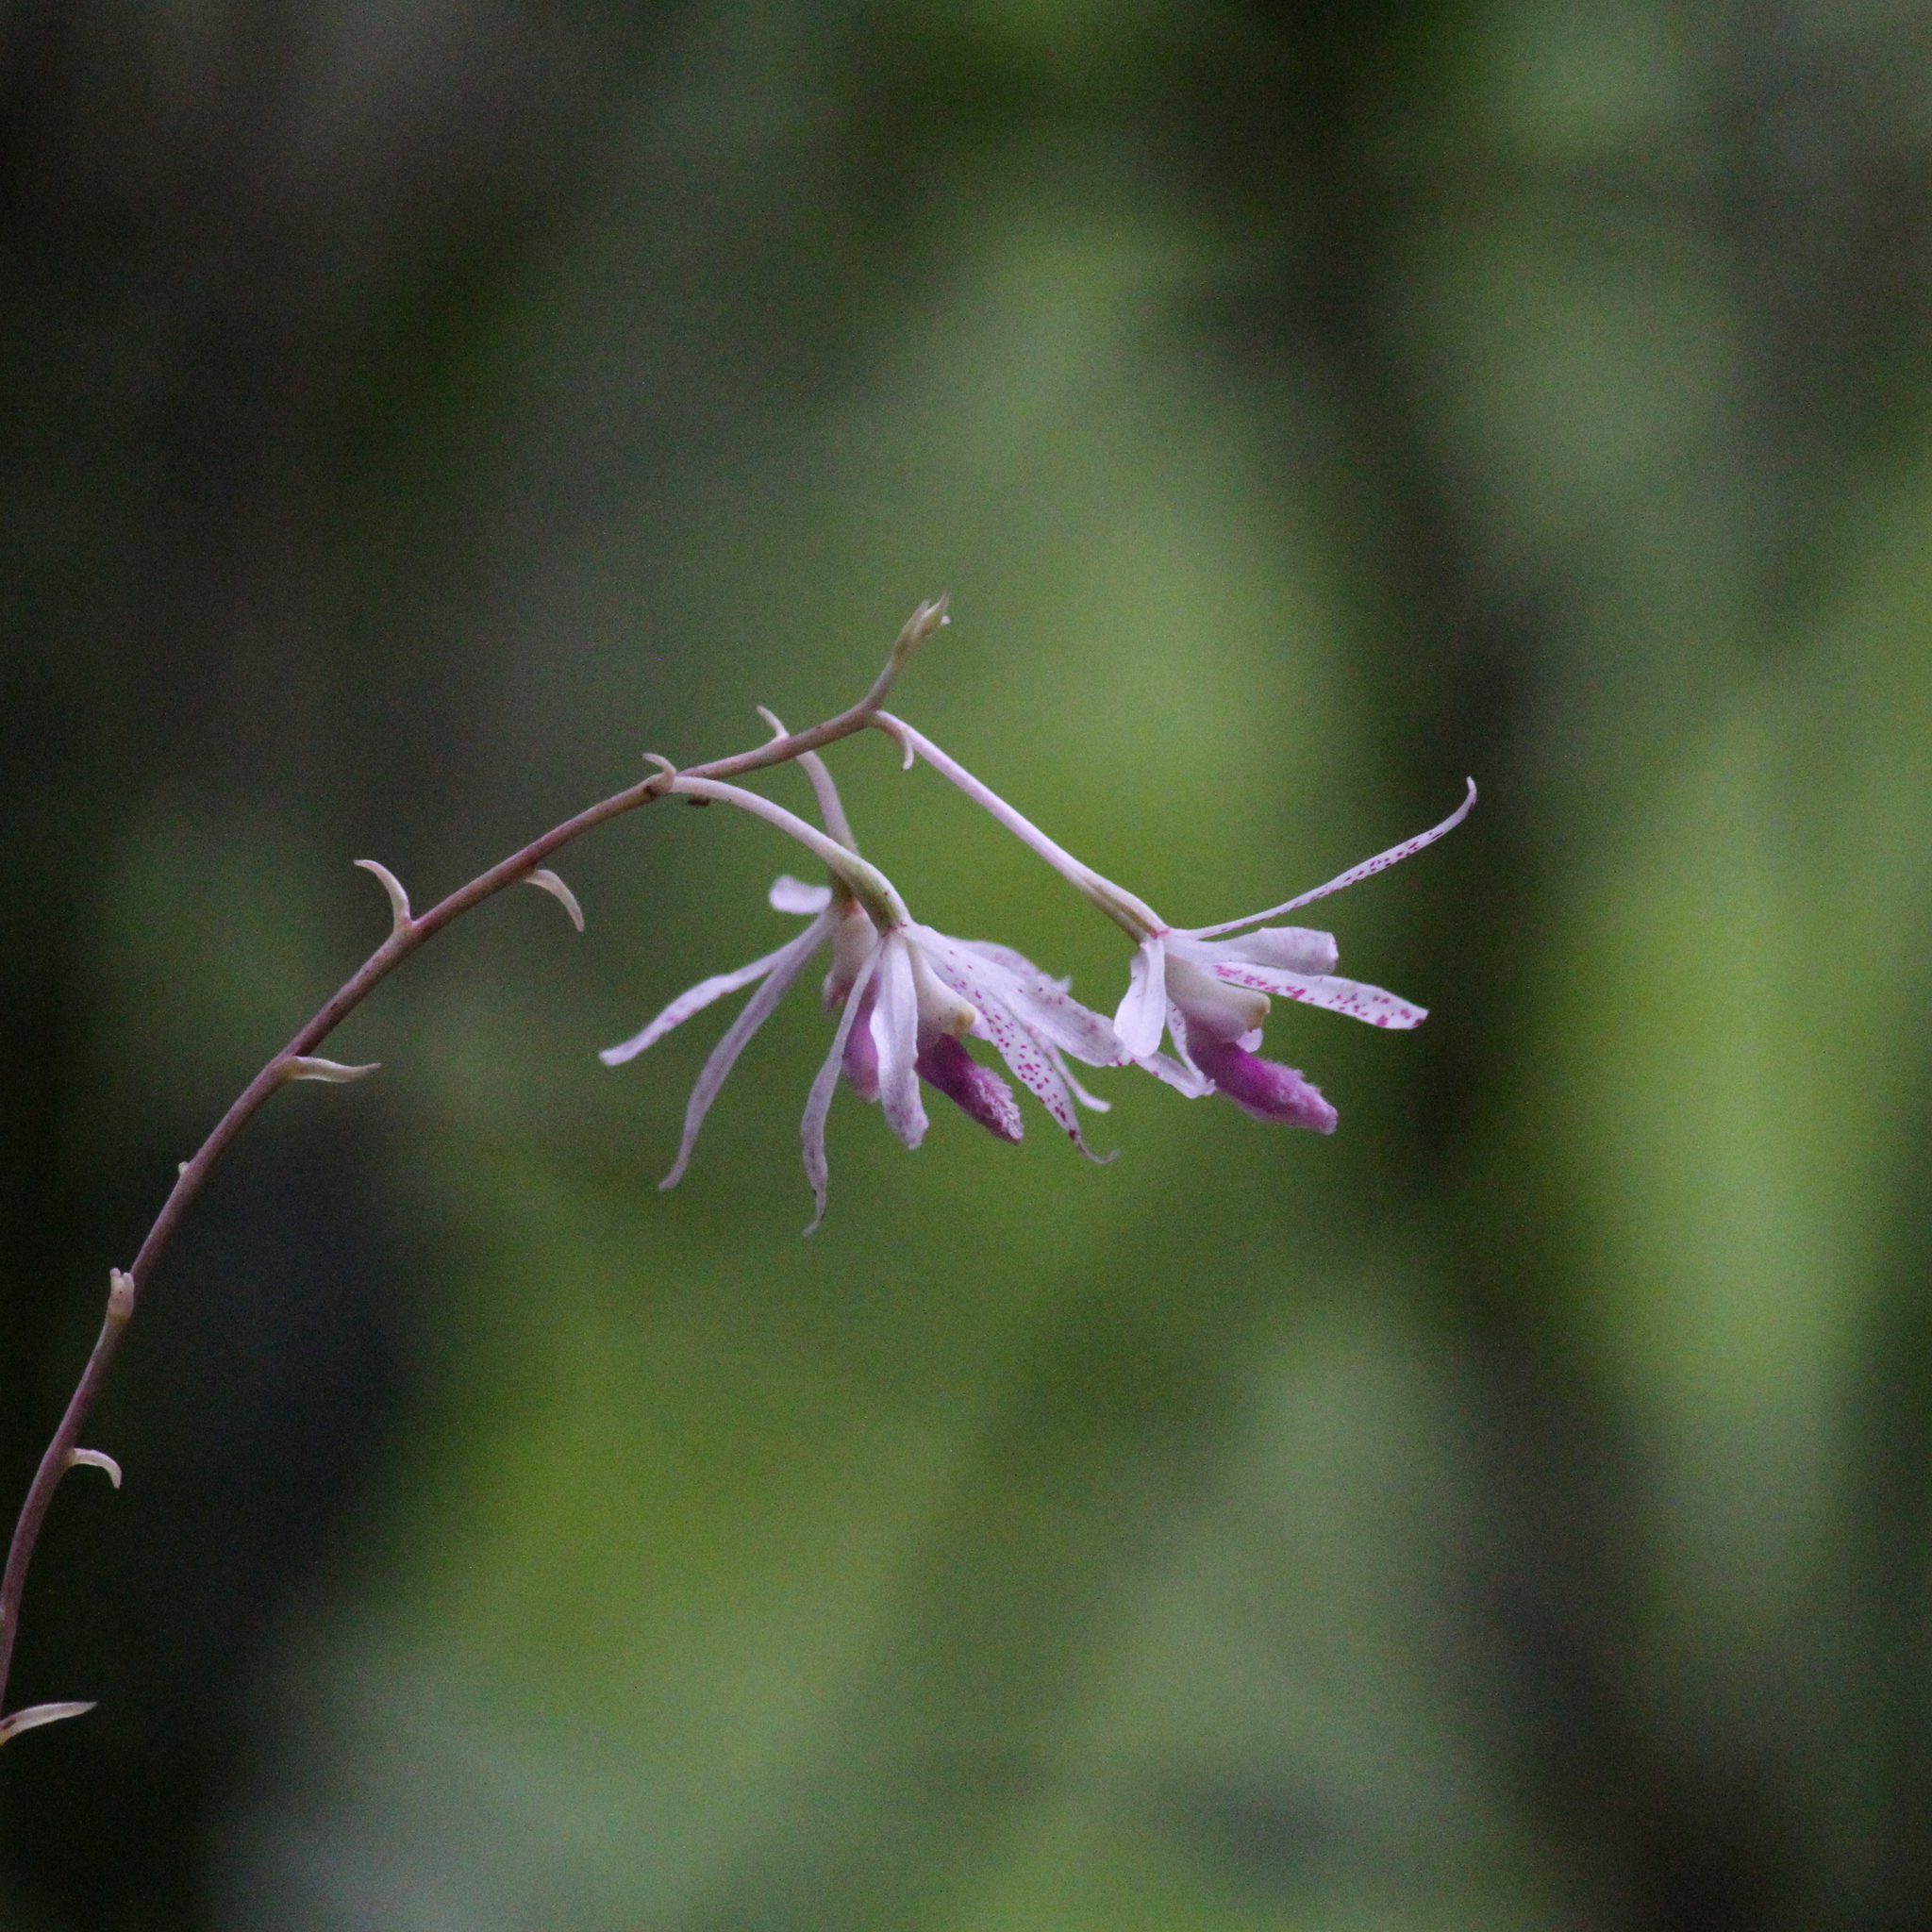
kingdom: Plantae
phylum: Tracheophyta
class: Liliopsida
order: Asparagales
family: Orchidaceae
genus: Dipodium
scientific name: Dipodium stenocheilum
